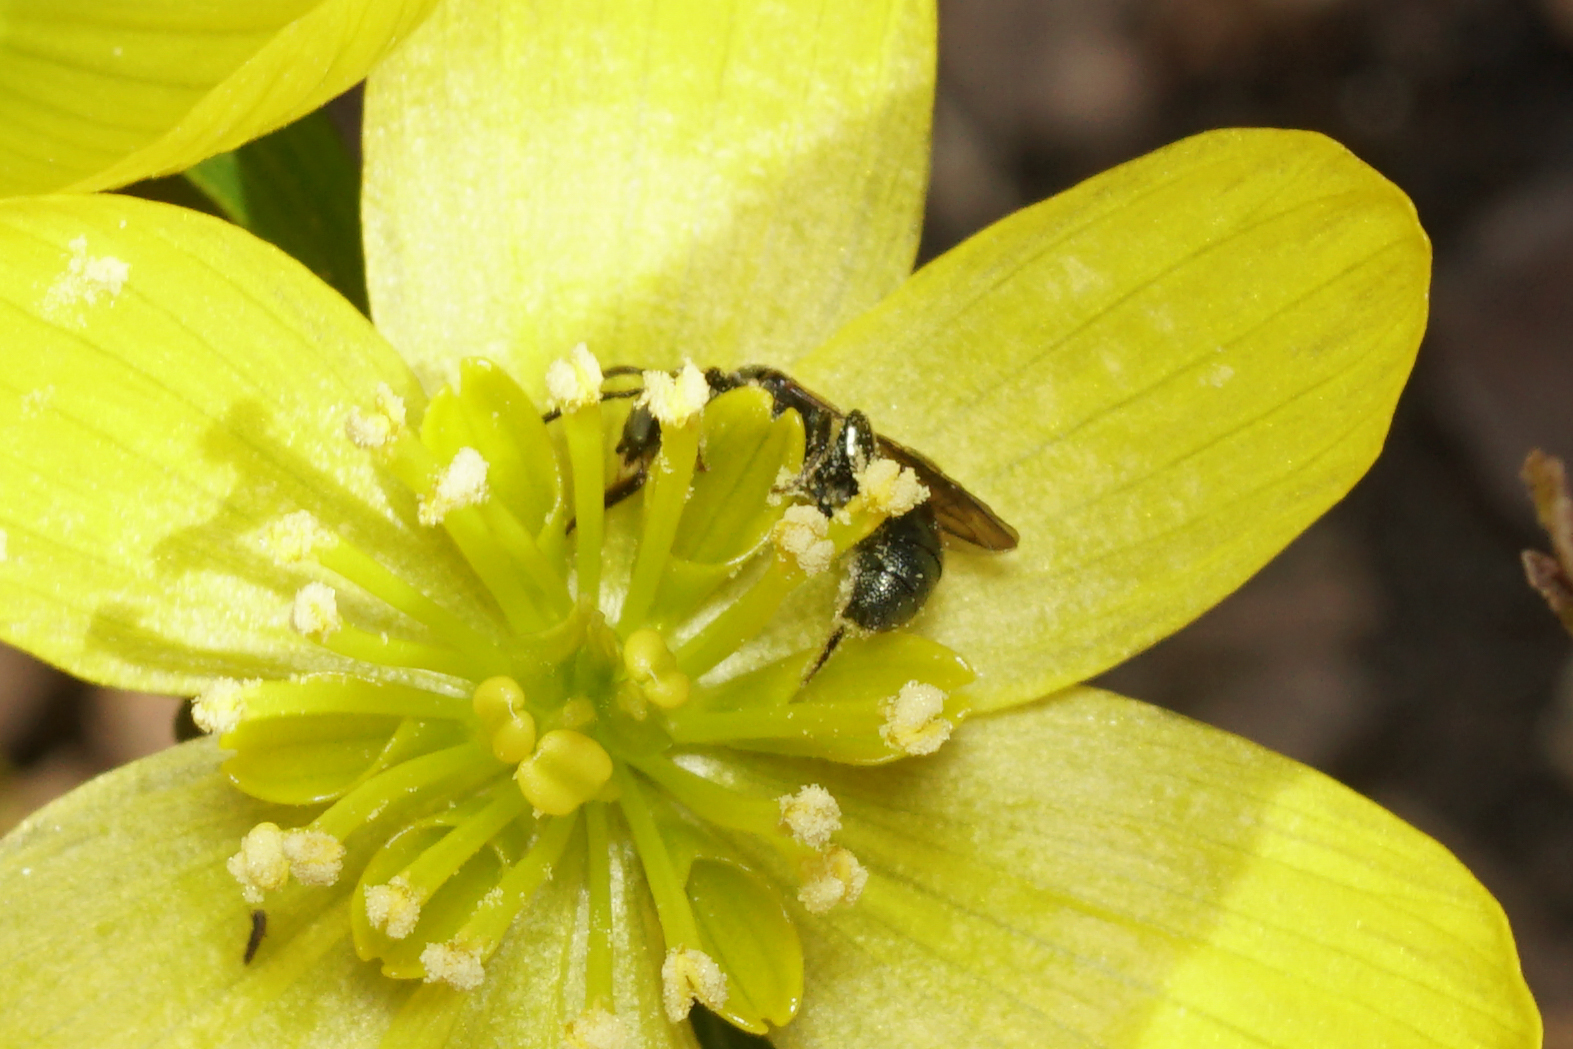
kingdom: Animalia
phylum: Arthropoda
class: Insecta
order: Hymenoptera
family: Apidae
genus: Ceratina
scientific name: Ceratina strenua
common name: Nimble carpenter bee
